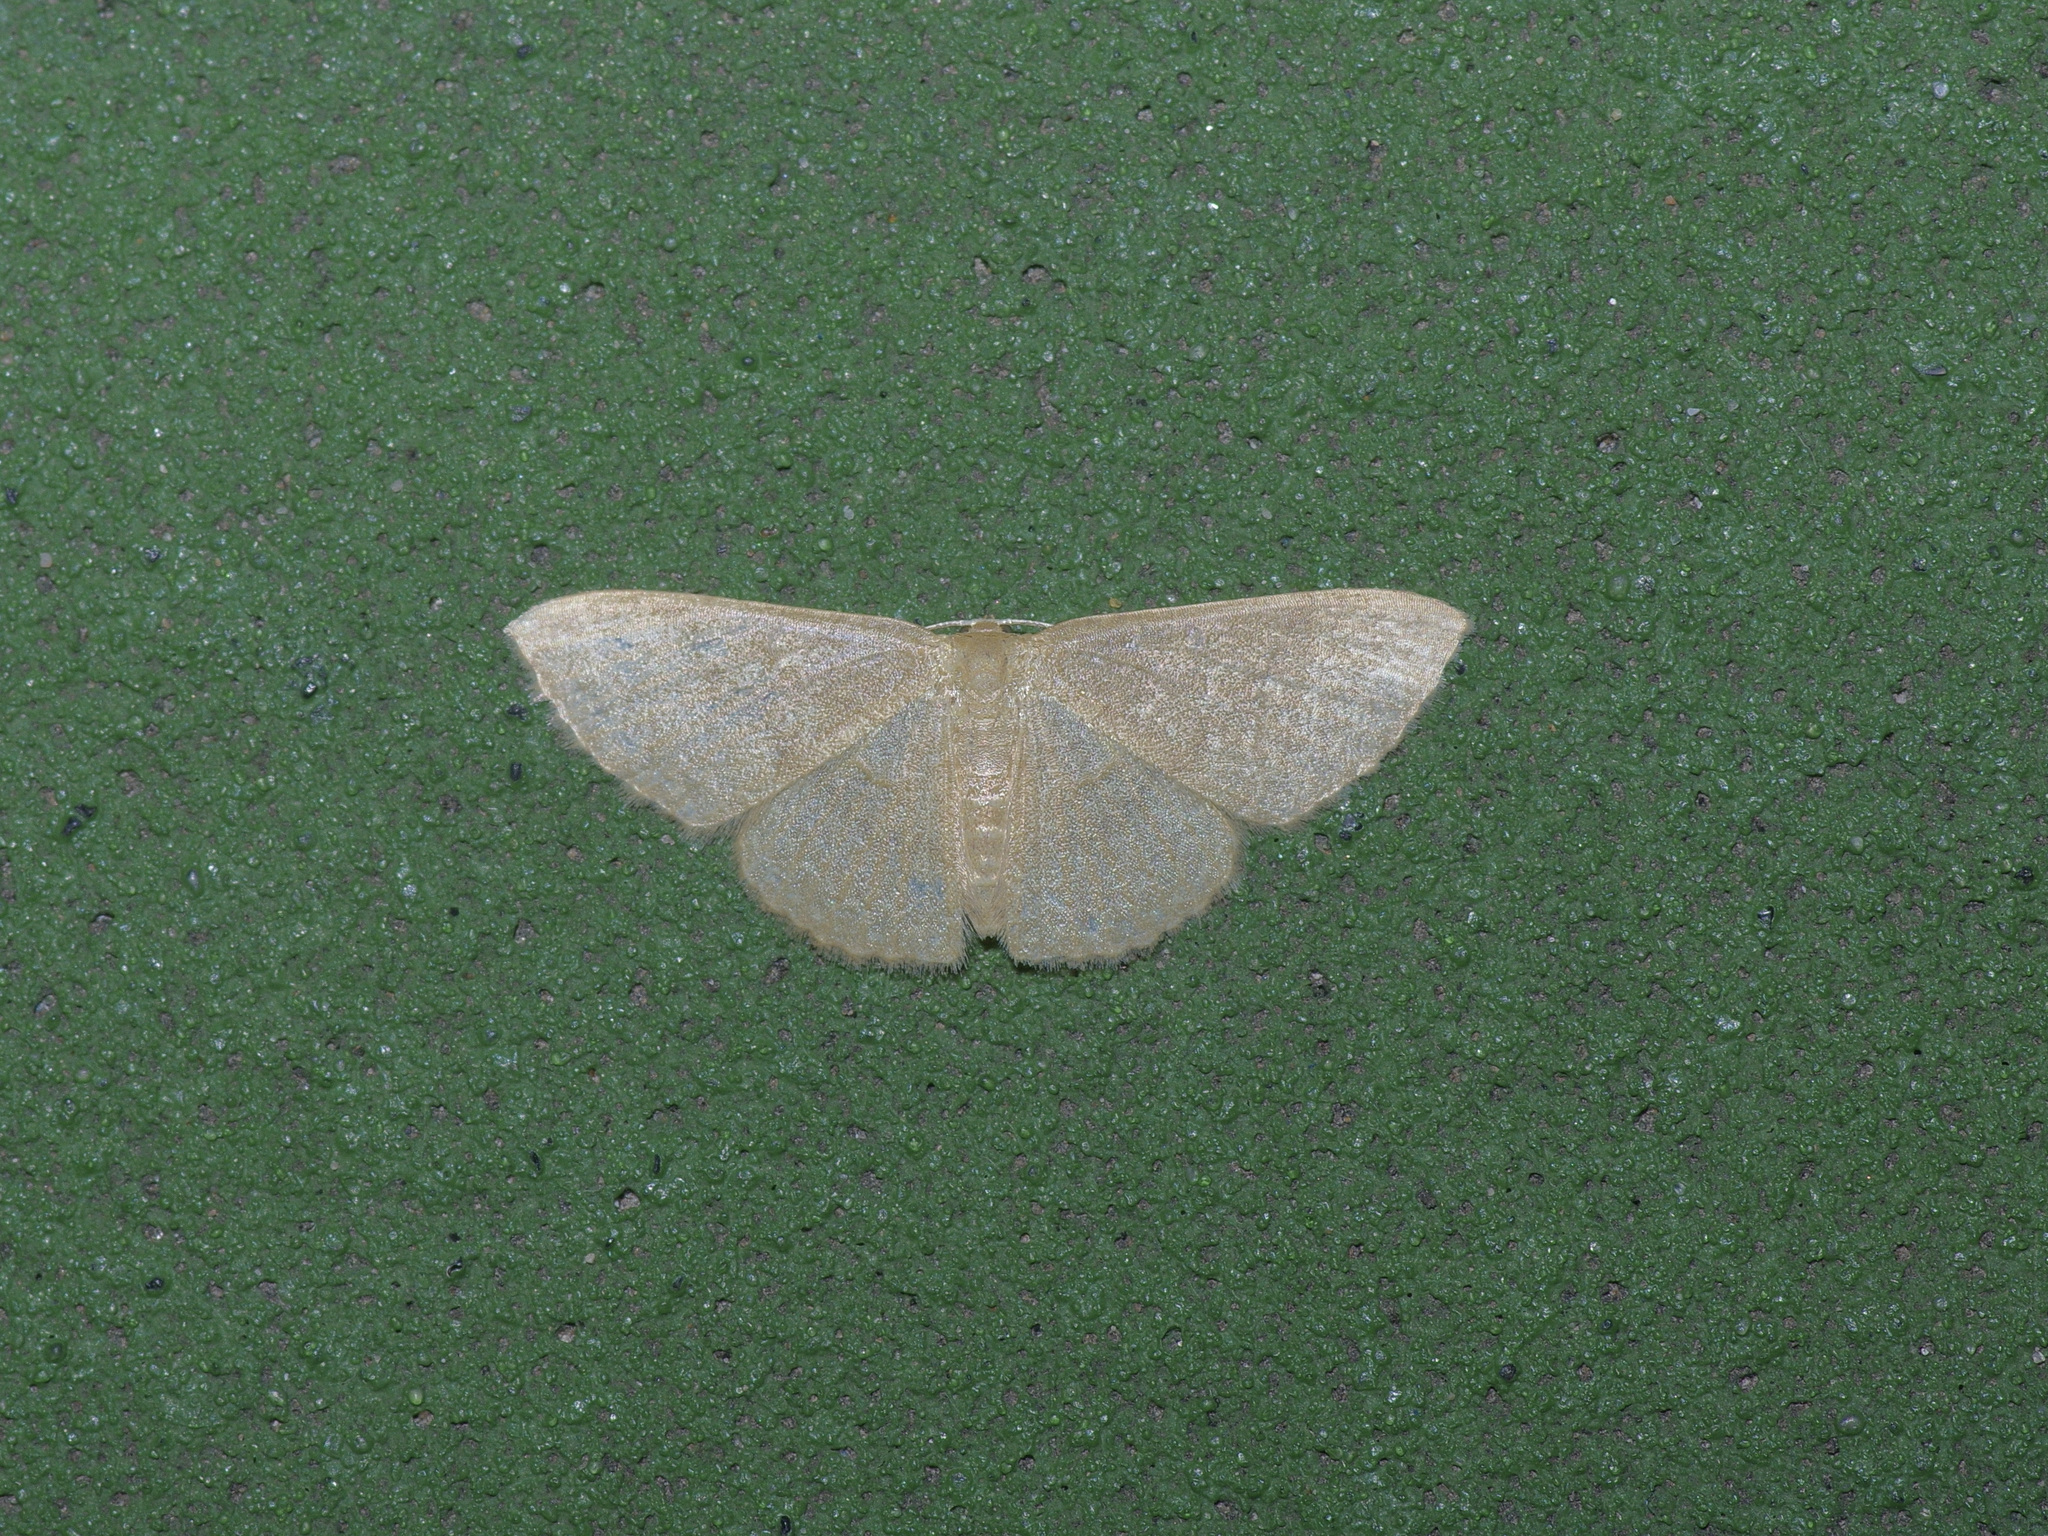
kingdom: Animalia
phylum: Arthropoda
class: Insecta
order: Lepidoptera
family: Geometridae
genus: Pleuroprucha
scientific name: Pleuroprucha insulsaria
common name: Common tan wave
